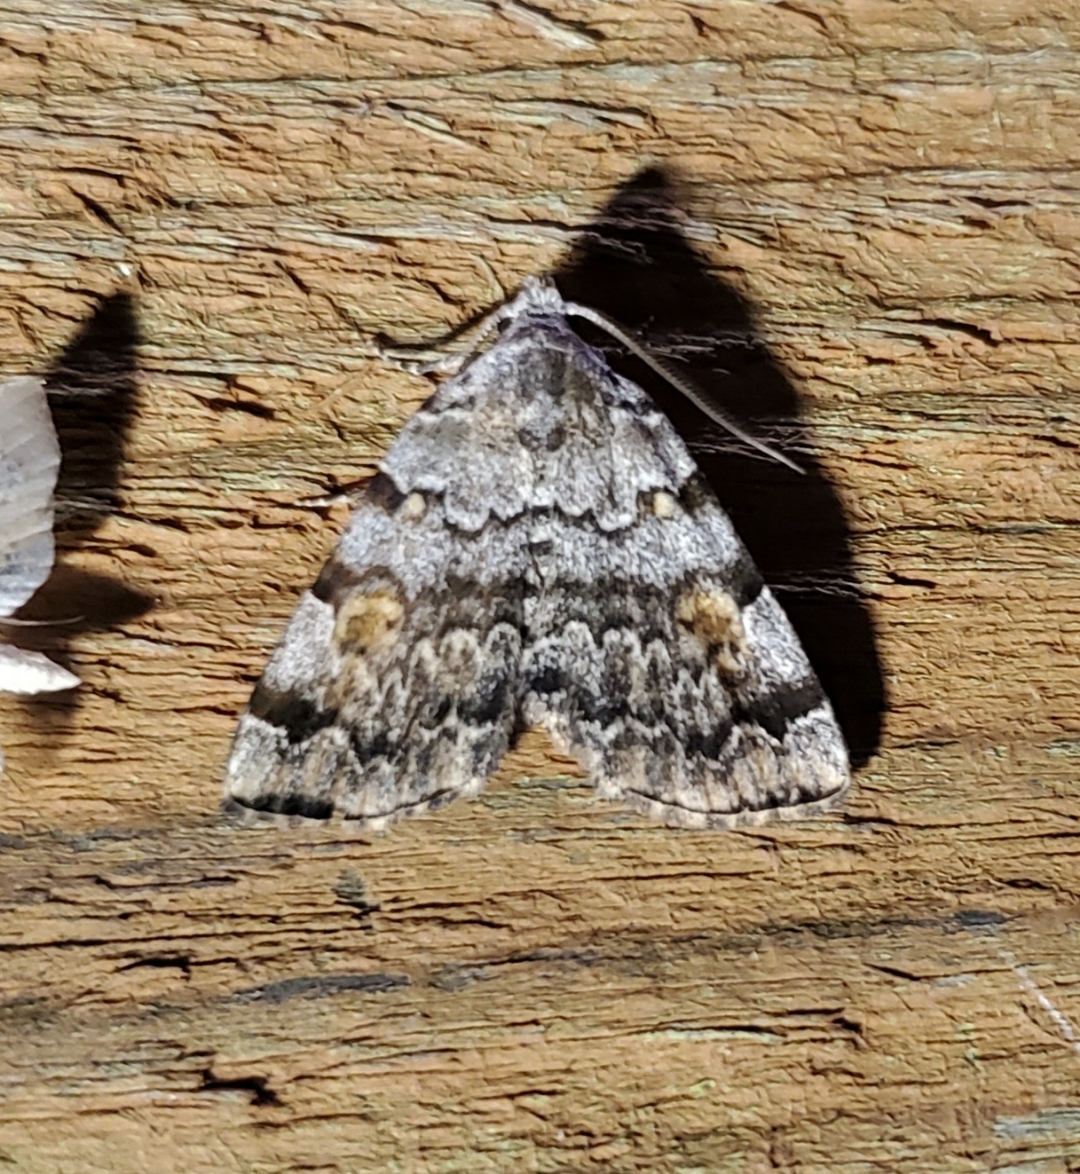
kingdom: Animalia
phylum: Arthropoda
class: Insecta
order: Lepidoptera
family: Erebidae
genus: Idia
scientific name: Idia americalis
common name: American idia moth
